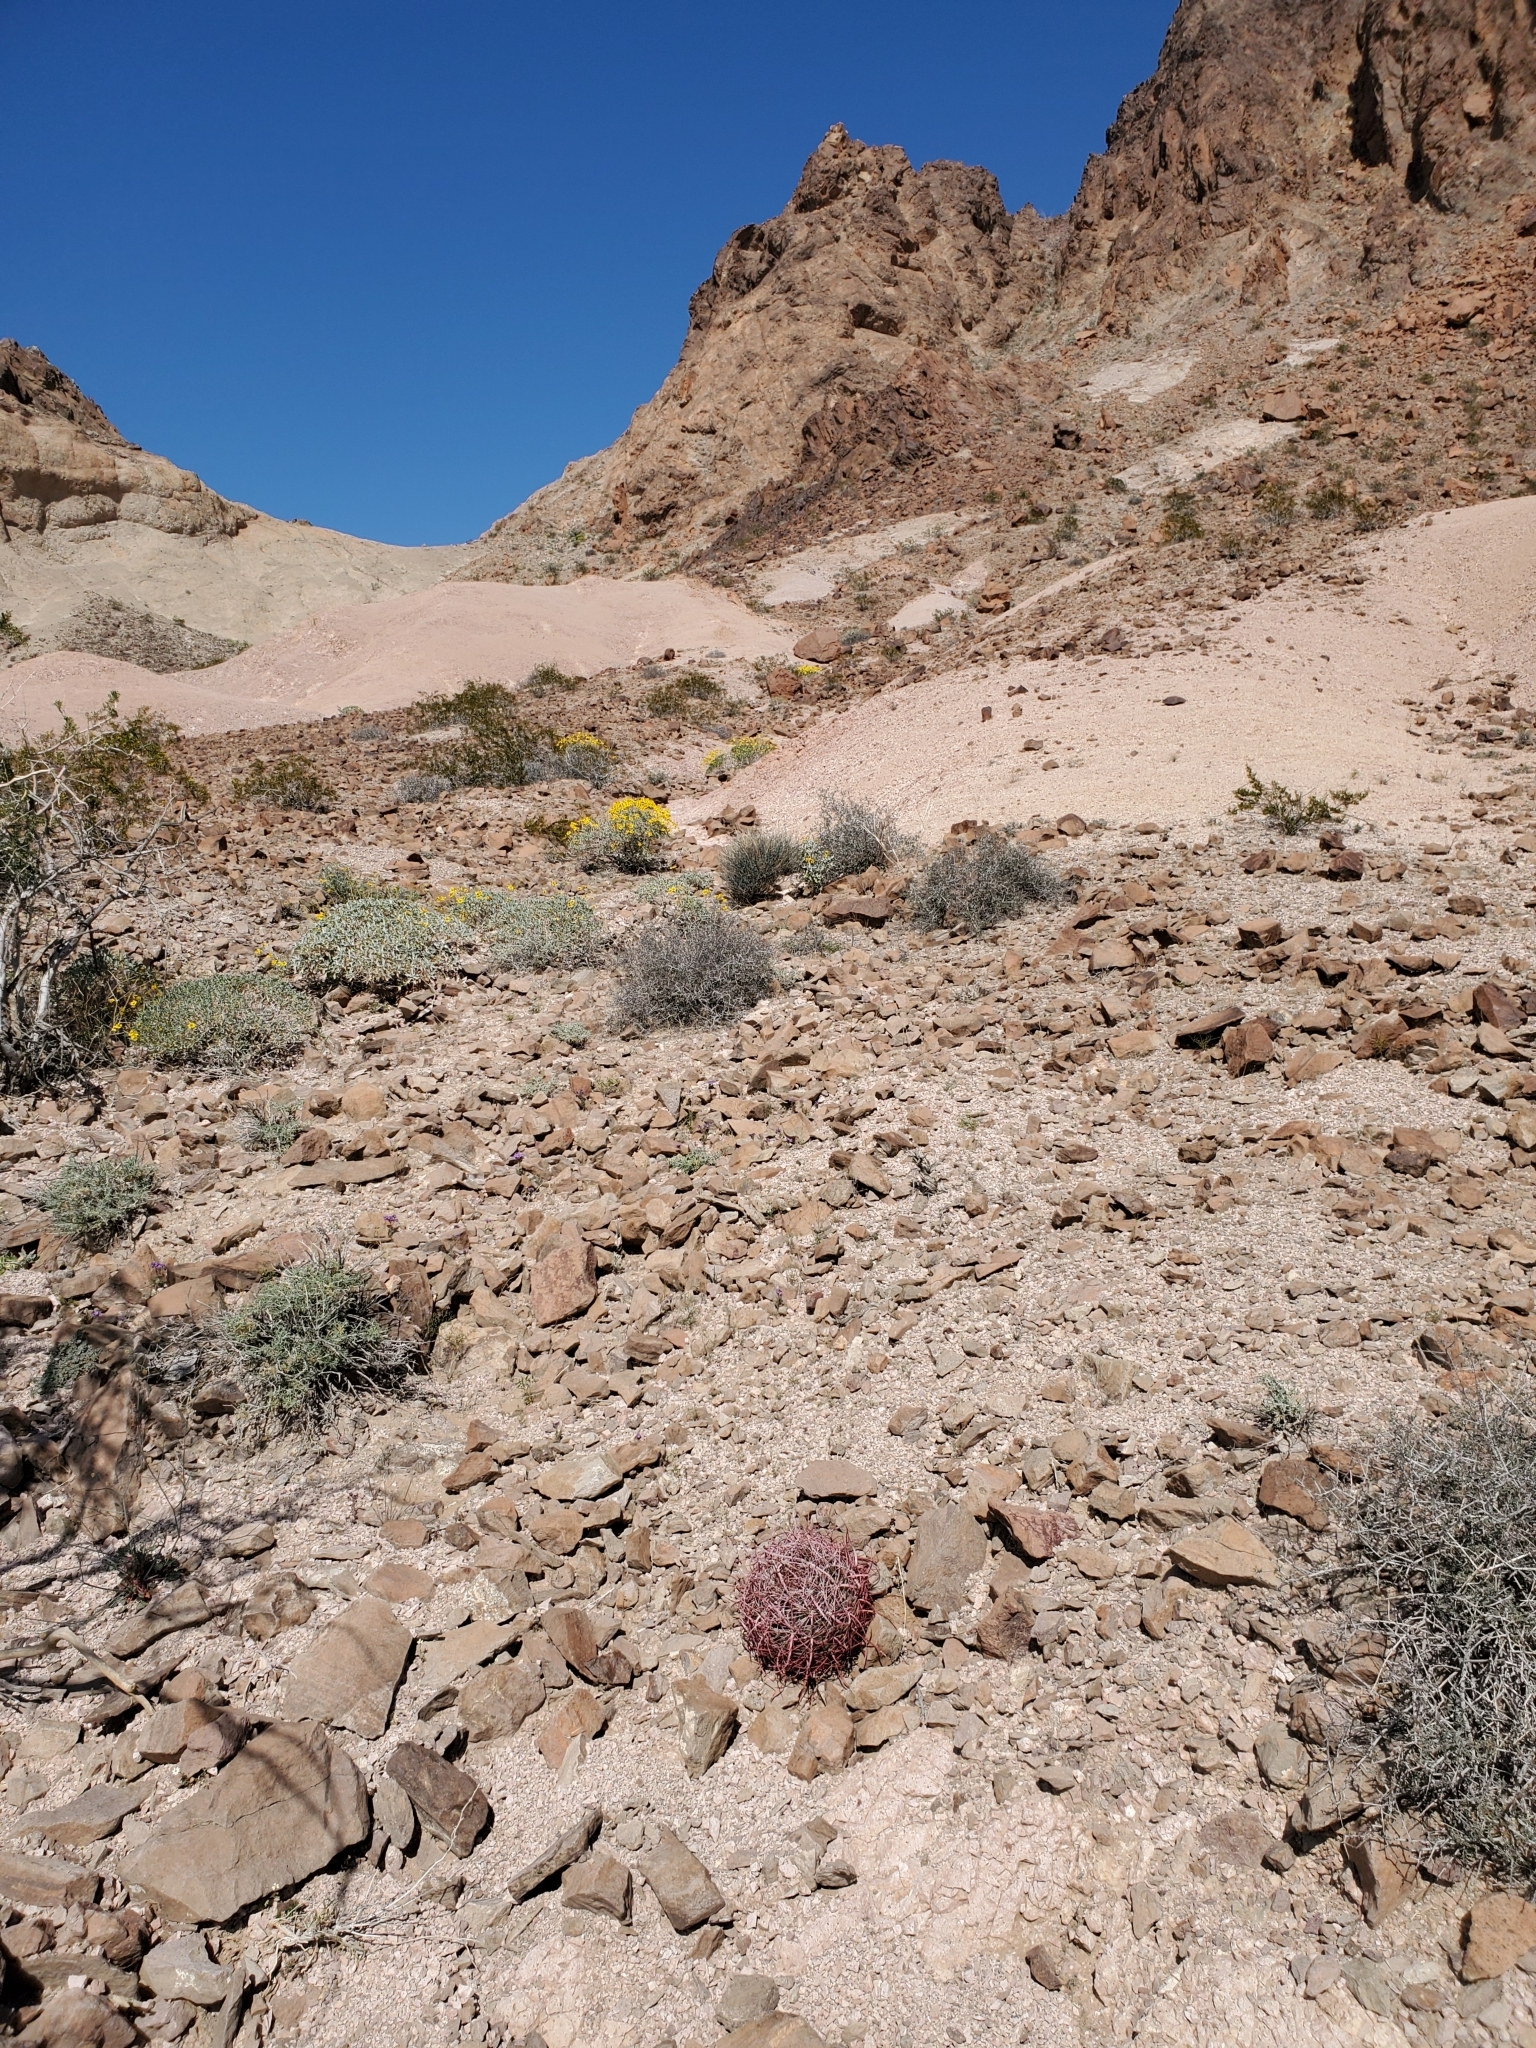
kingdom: Plantae
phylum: Tracheophyta
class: Magnoliopsida
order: Caryophyllales
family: Cactaceae
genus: Ferocactus
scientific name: Ferocactus cylindraceus
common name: California barrel cactus
